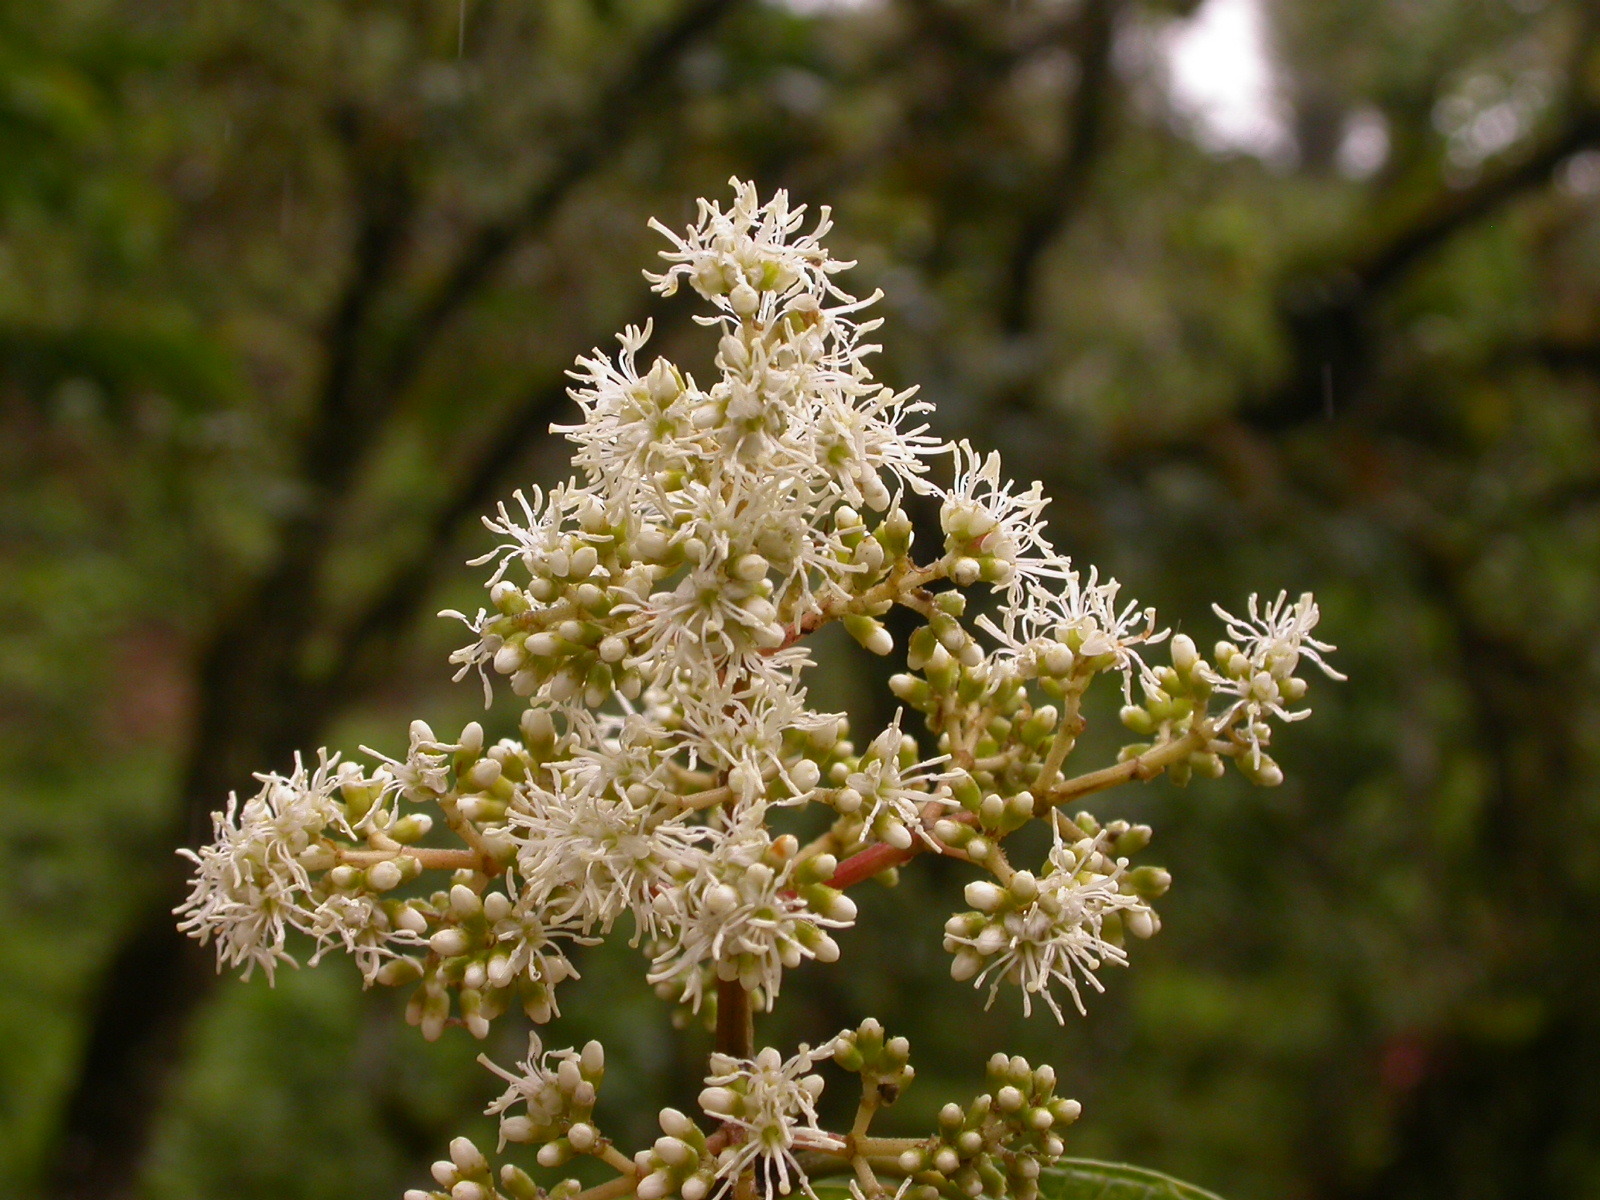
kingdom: Plantae
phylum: Tracheophyta
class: Magnoliopsida
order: Myrtales
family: Melastomataceae
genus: Miconia
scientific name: Miconia affinis
